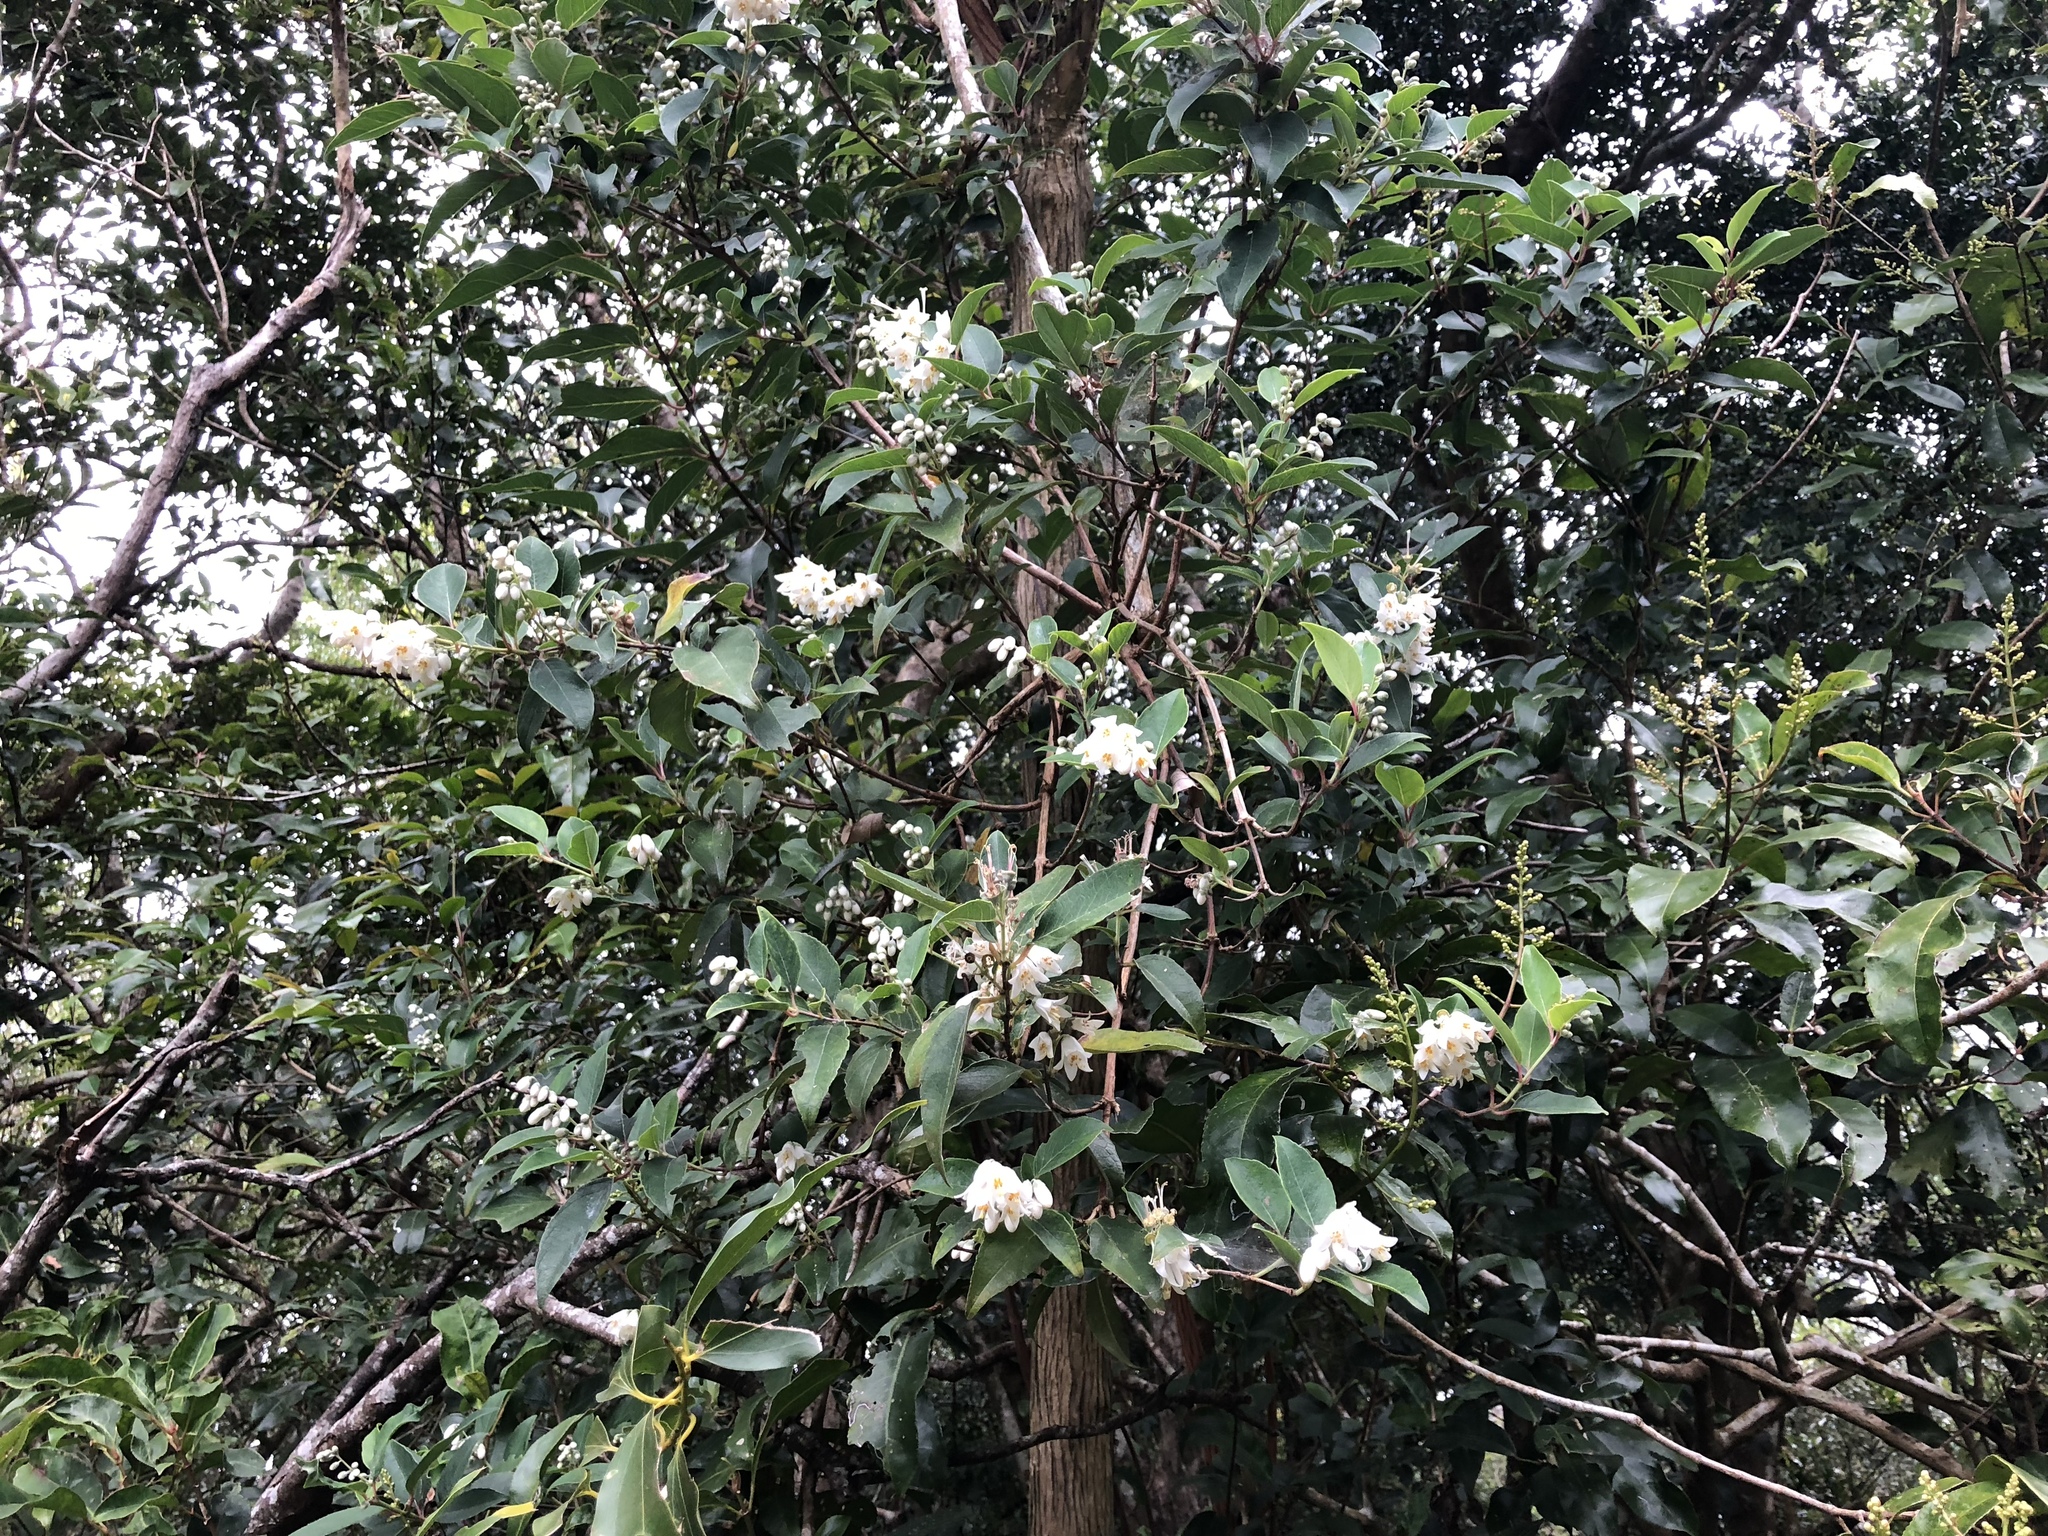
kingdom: Plantae
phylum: Tracheophyta
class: Magnoliopsida
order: Cornales
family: Hydrangeaceae
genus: Deutzia
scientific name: Deutzia pulchra
